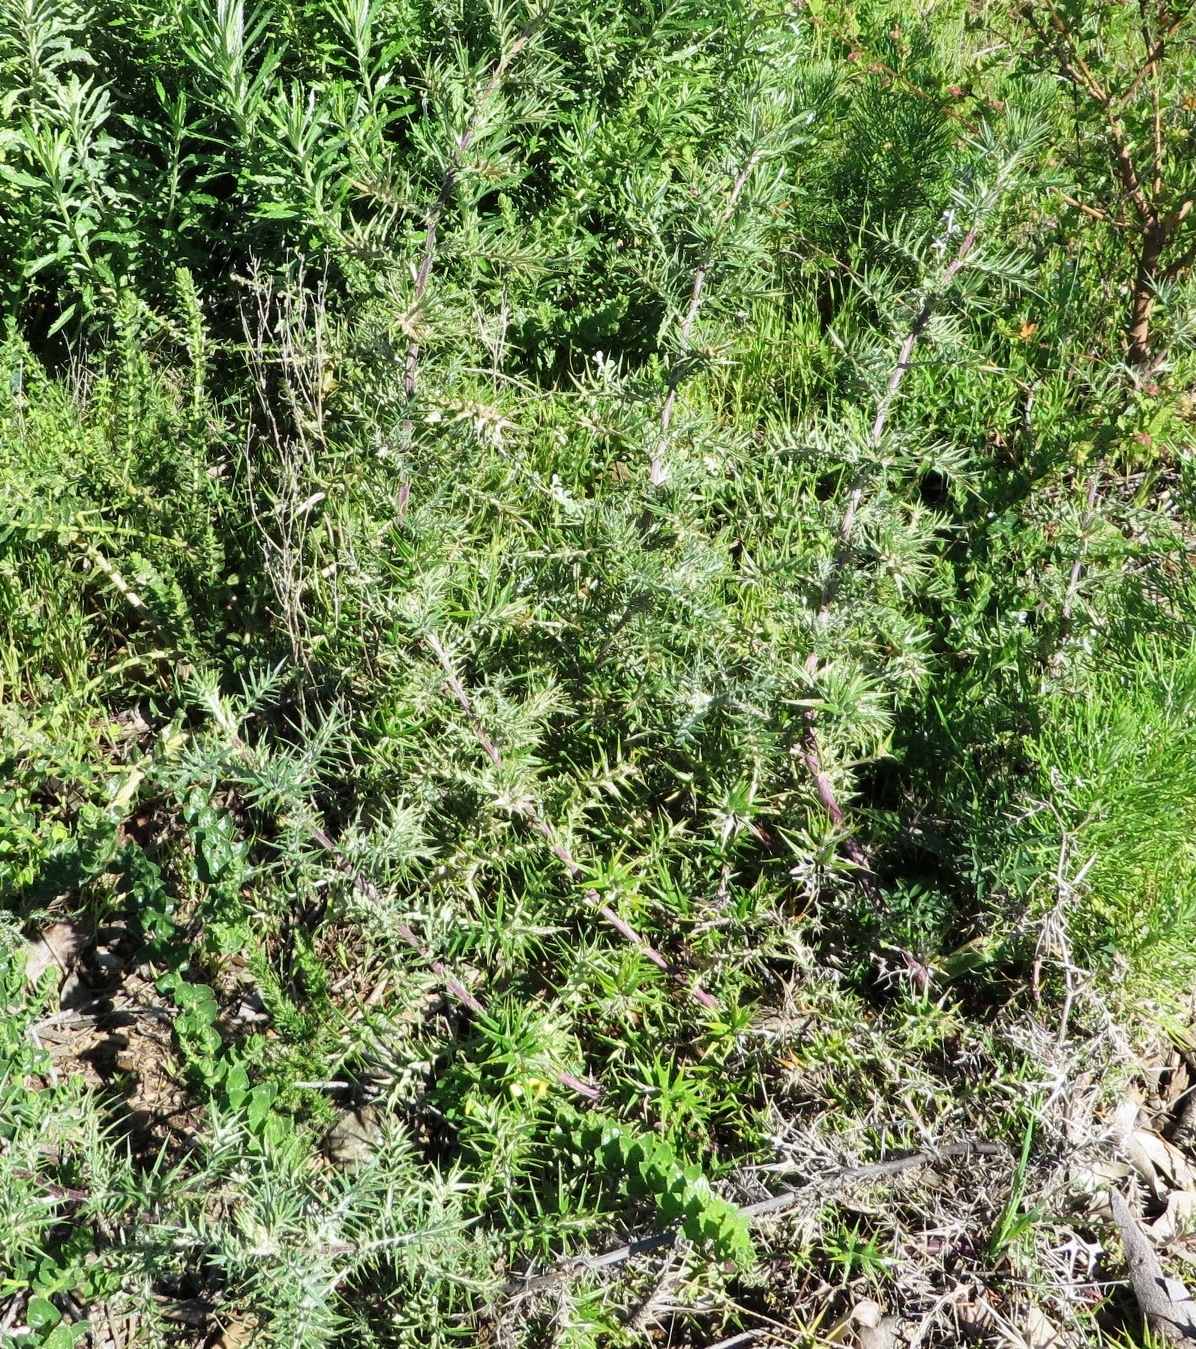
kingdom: Plantae
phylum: Tracheophyta
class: Magnoliopsida
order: Asterales
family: Asteraceae
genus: Berkheya
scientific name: Berkheya rigida
